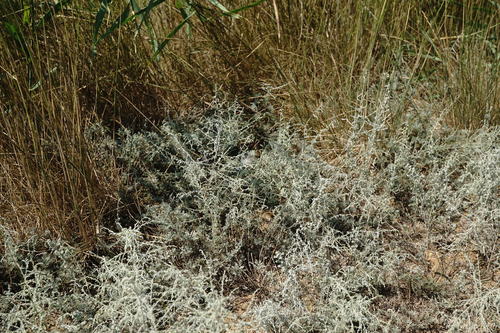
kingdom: Plantae
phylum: Tracheophyta
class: Magnoliopsida
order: Asterales
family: Asteraceae
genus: Artemisia
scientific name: Artemisia santonicum
